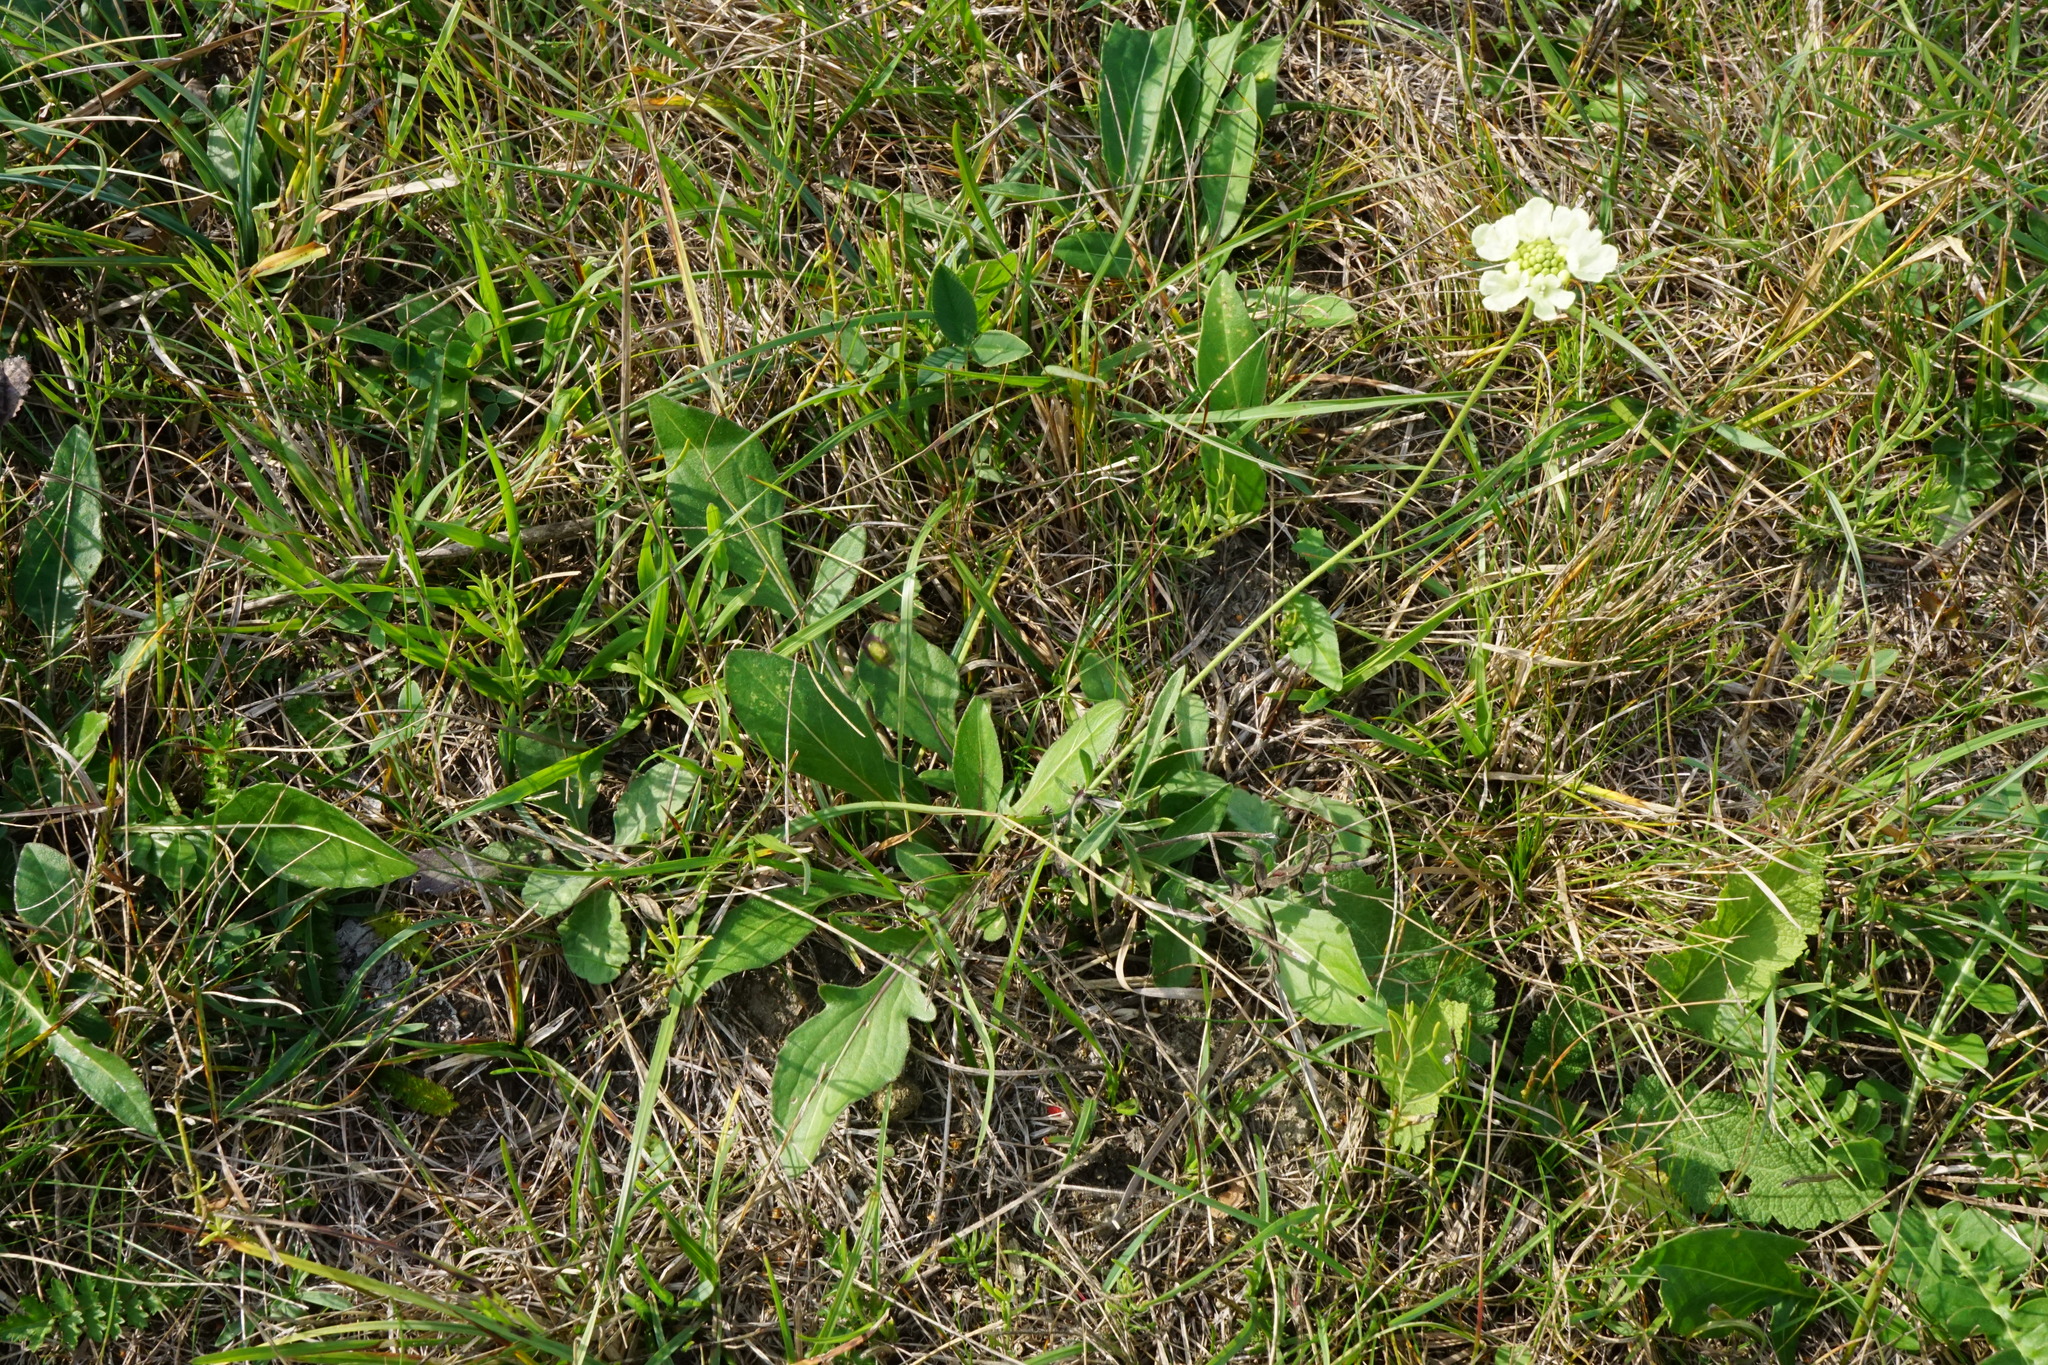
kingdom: Plantae
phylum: Tracheophyta
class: Magnoliopsida
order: Dipsacales
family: Caprifoliaceae
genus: Scabiosa
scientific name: Scabiosa ochroleuca
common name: Cream pincushions
